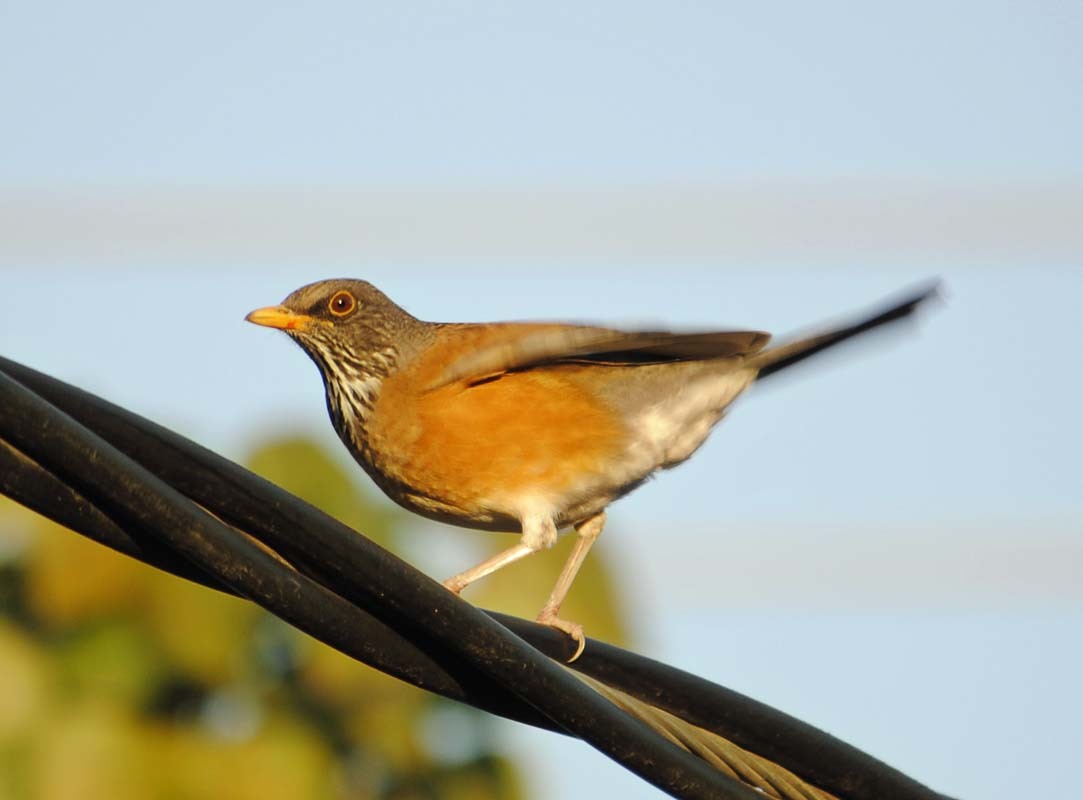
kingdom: Animalia
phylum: Chordata
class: Aves
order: Passeriformes
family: Turdidae
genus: Turdus
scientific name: Turdus rufopalliatus
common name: Rufous-backed robin
